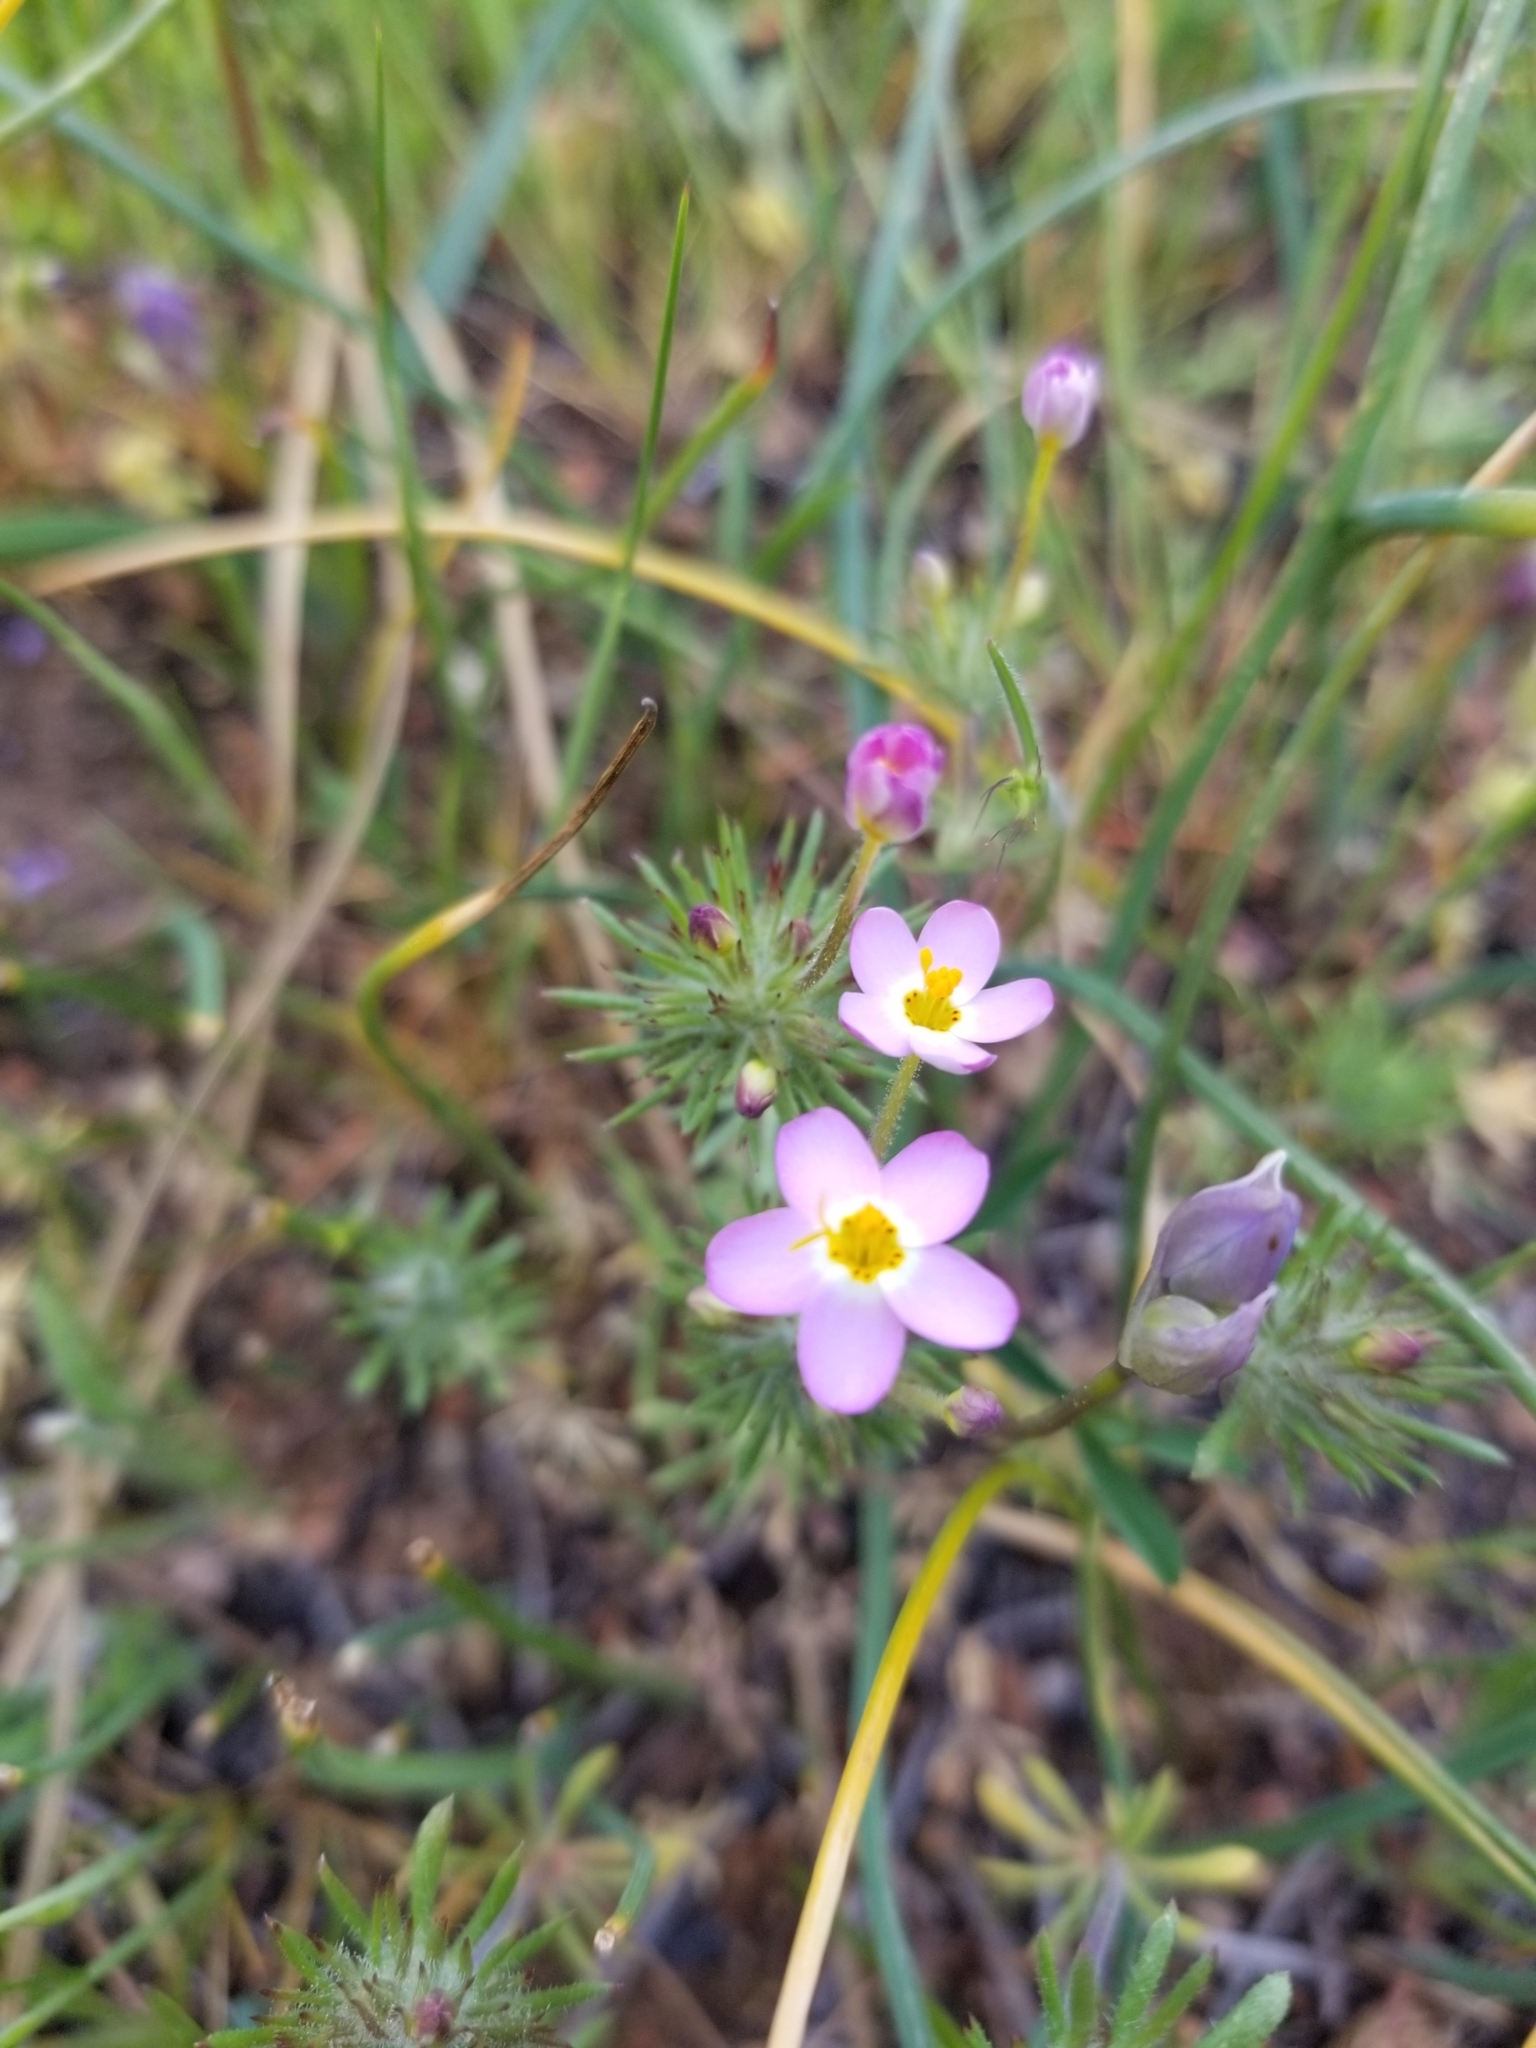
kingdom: Plantae
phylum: Tracheophyta
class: Magnoliopsida
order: Ericales
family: Polemoniaceae
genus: Leptosiphon
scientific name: Leptosiphon parviflorus
